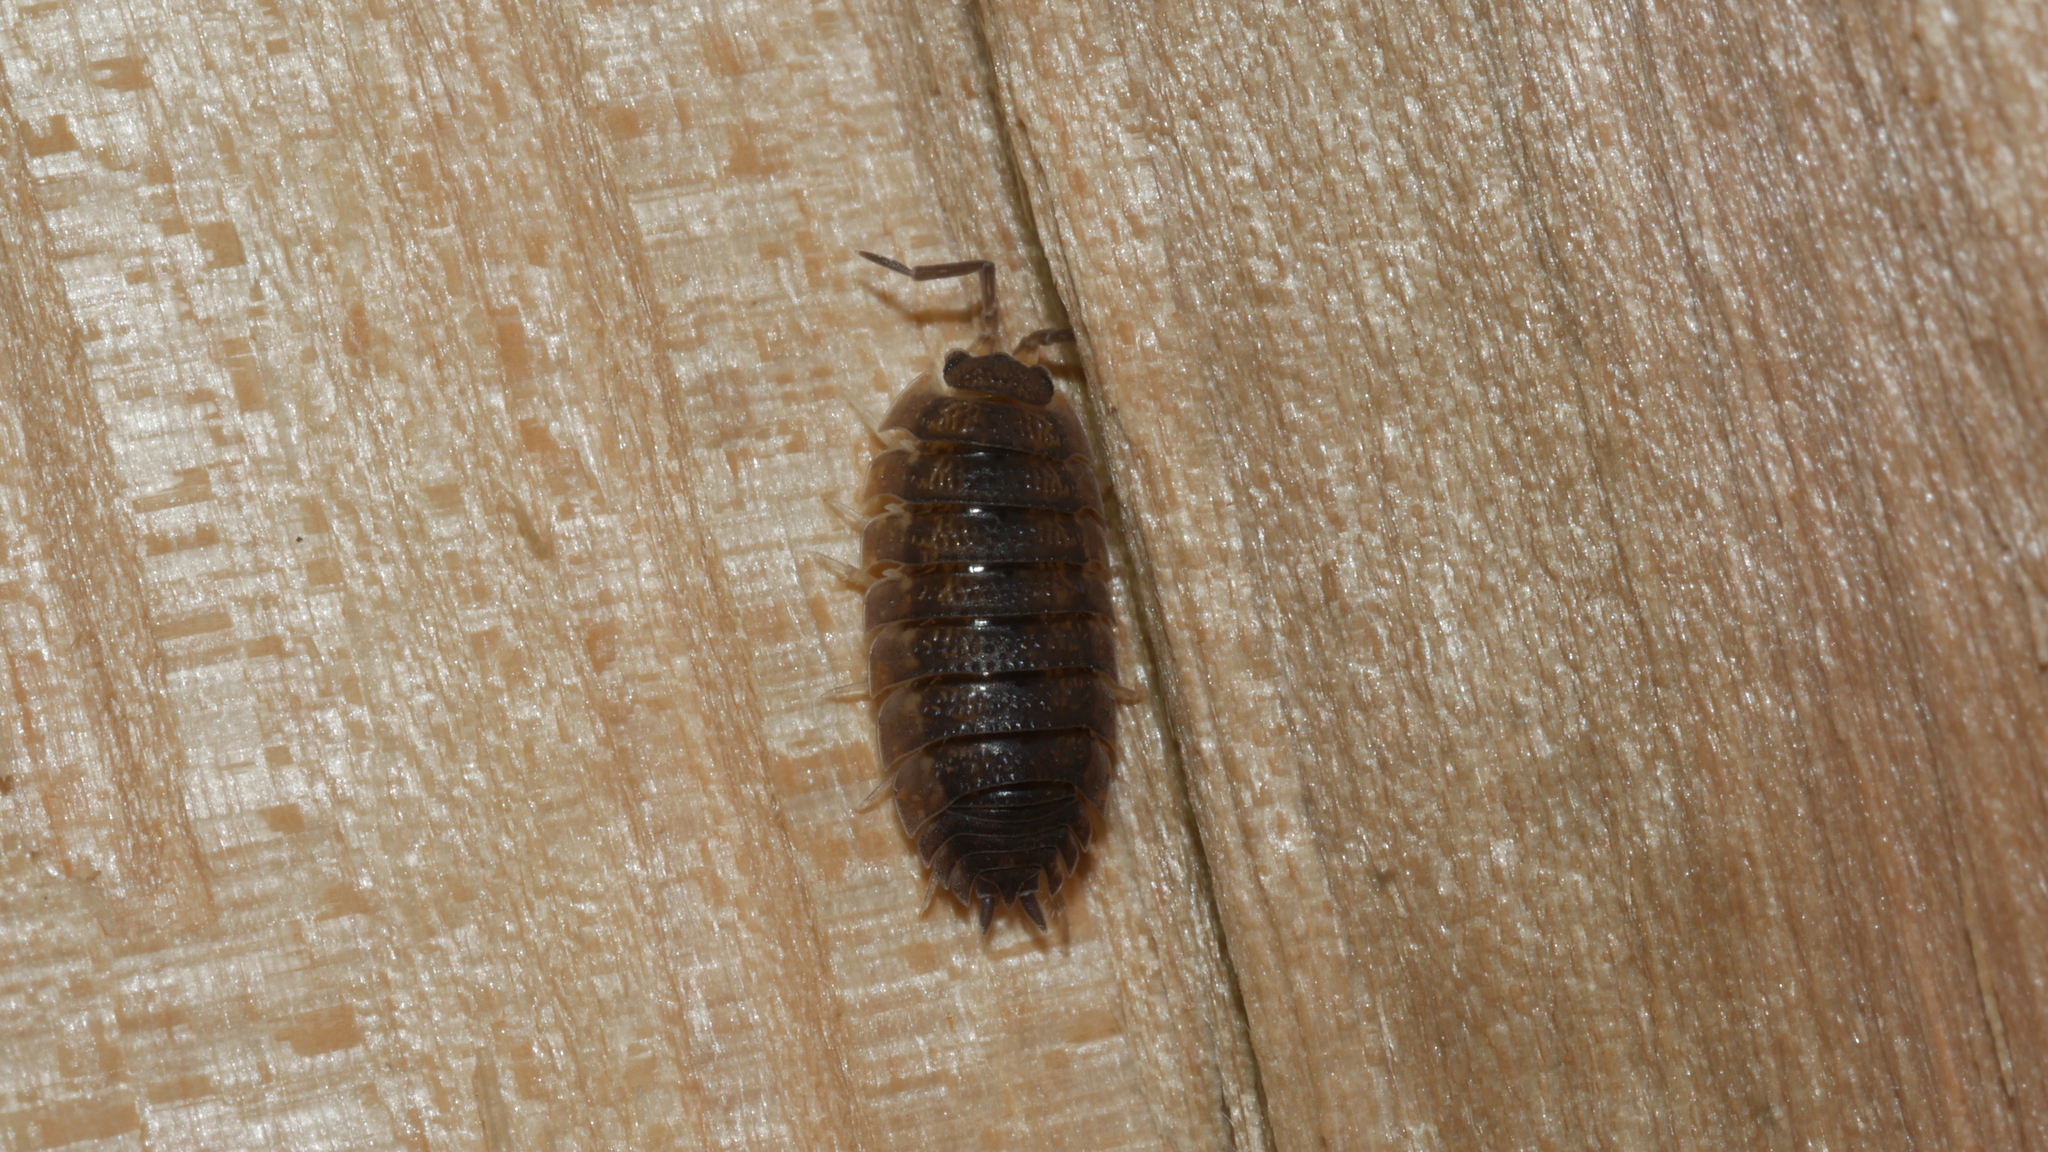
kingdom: Animalia
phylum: Arthropoda
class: Malacostraca
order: Isopoda
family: Porcellionidae
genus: Porcellio
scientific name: Porcellio scaber
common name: Common rough woodlouse
